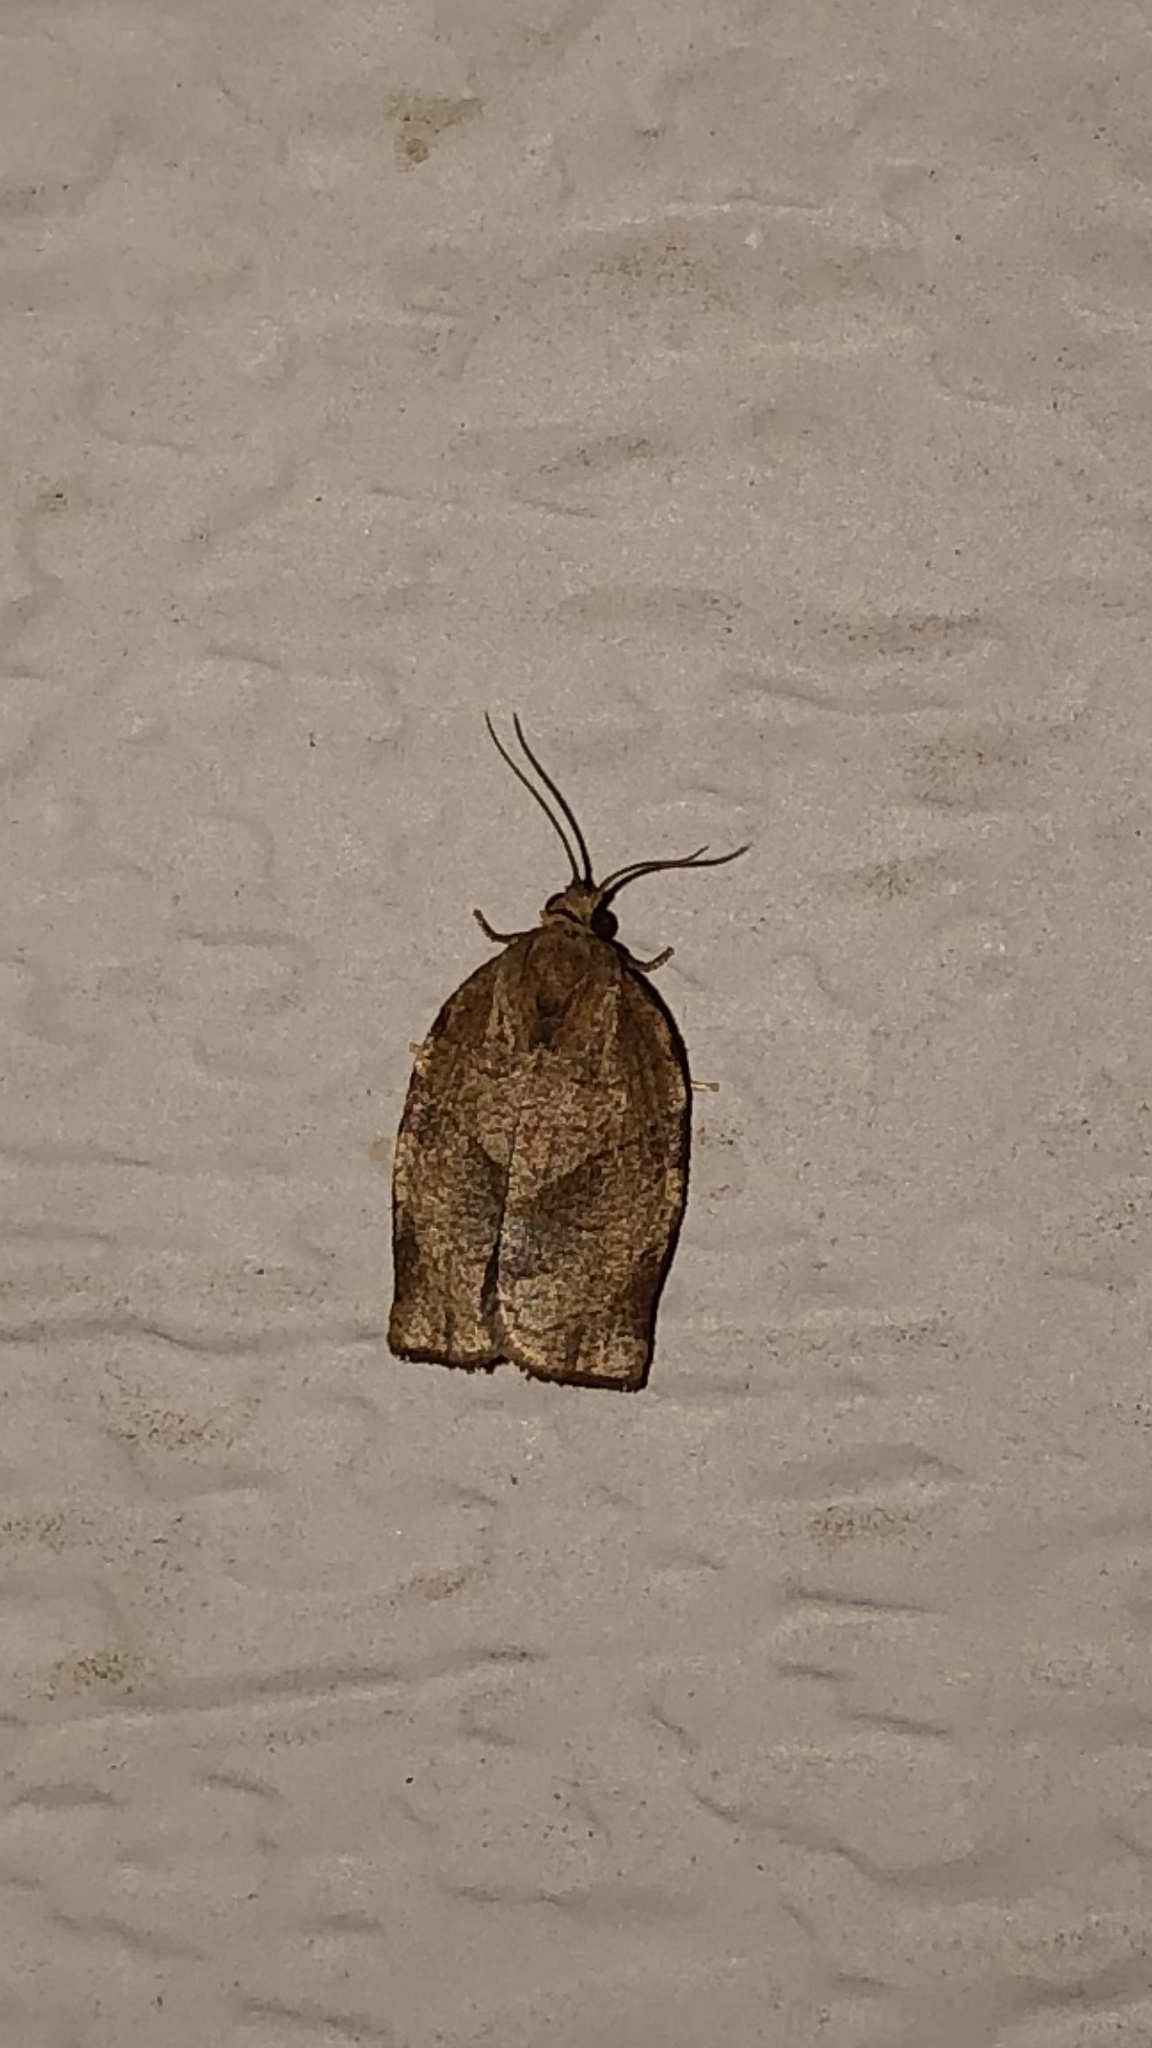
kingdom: Animalia
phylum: Arthropoda
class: Insecta
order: Lepidoptera
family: Tortricidae
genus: Choristoneura
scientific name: Choristoneura rosaceana
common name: Oblique-banded leafroller moth
